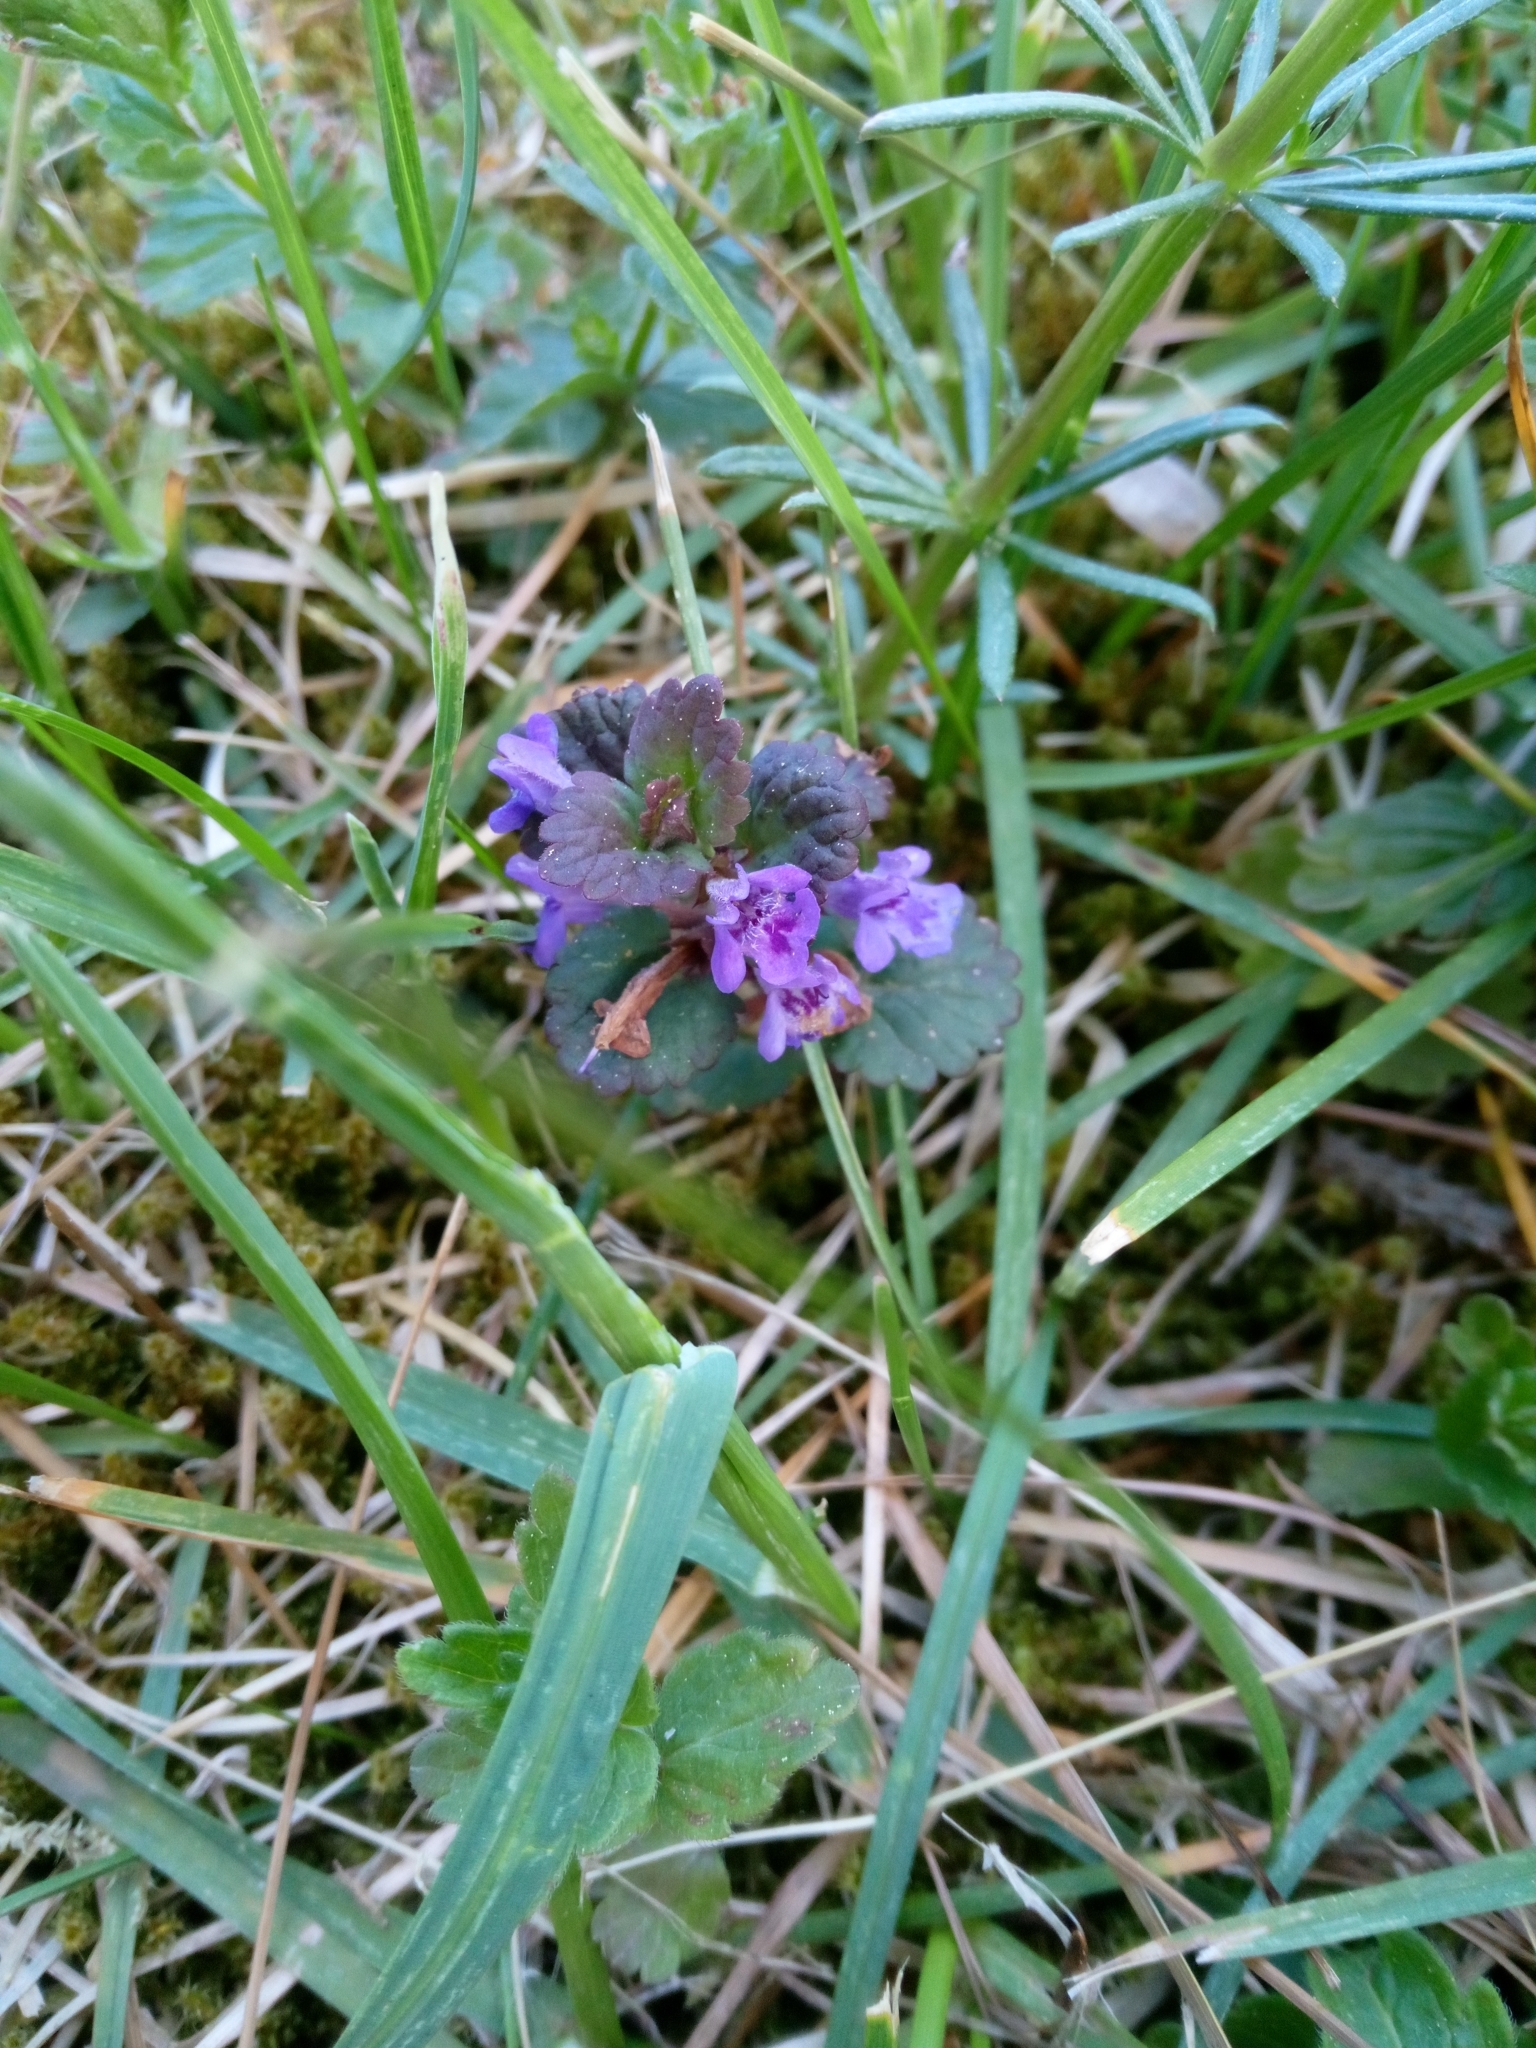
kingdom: Plantae
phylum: Tracheophyta
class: Magnoliopsida
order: Lamiales
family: Lamiaceae
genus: Glechoma
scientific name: Glechoma hederacea
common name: Ground ivy
